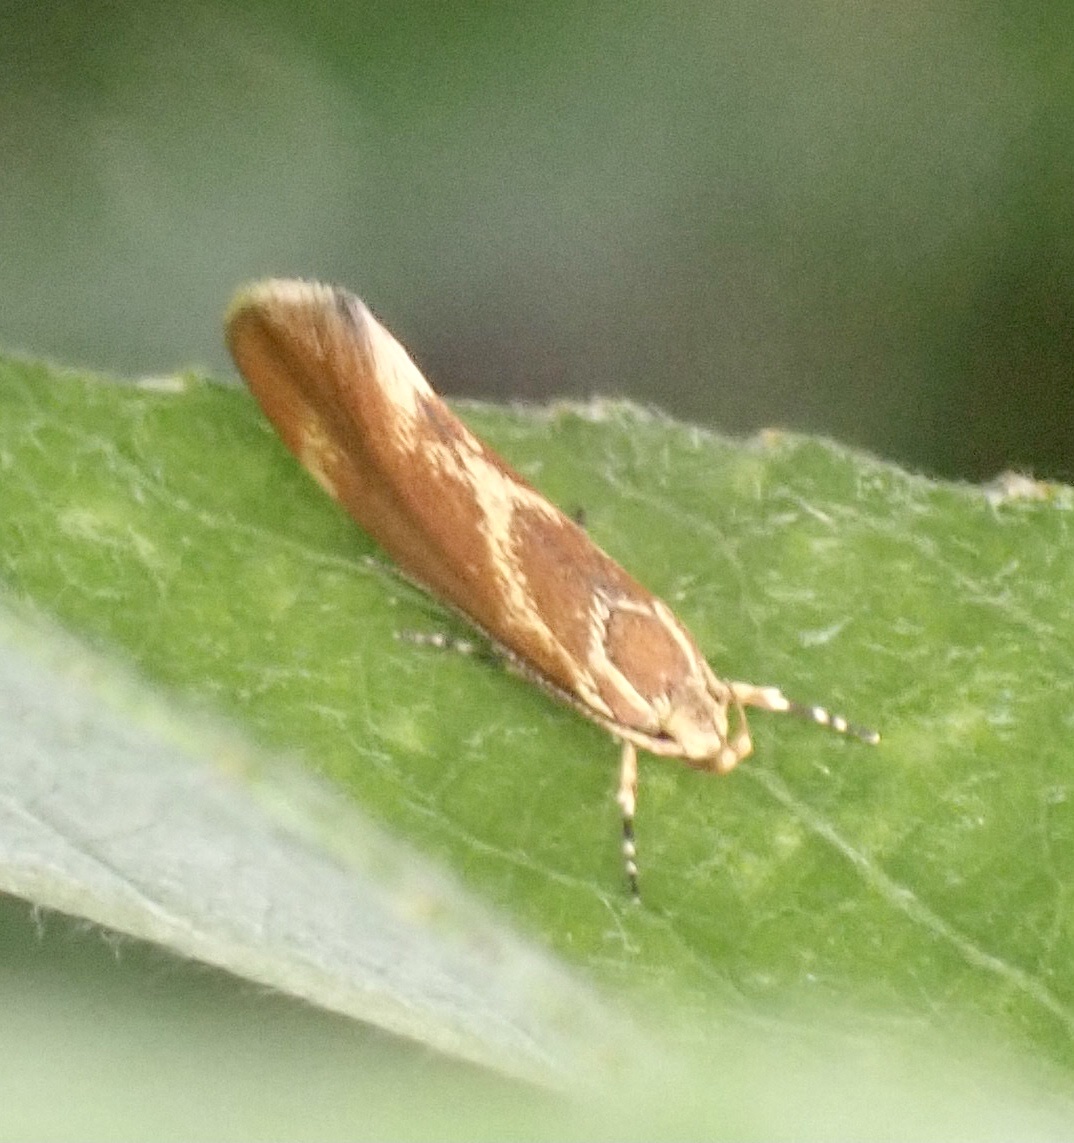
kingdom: Animalia
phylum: Arthropoda
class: Insecta
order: Lepidoptera
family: Oecophoridae
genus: Borkhausenia
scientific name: Borkhausenia italica
